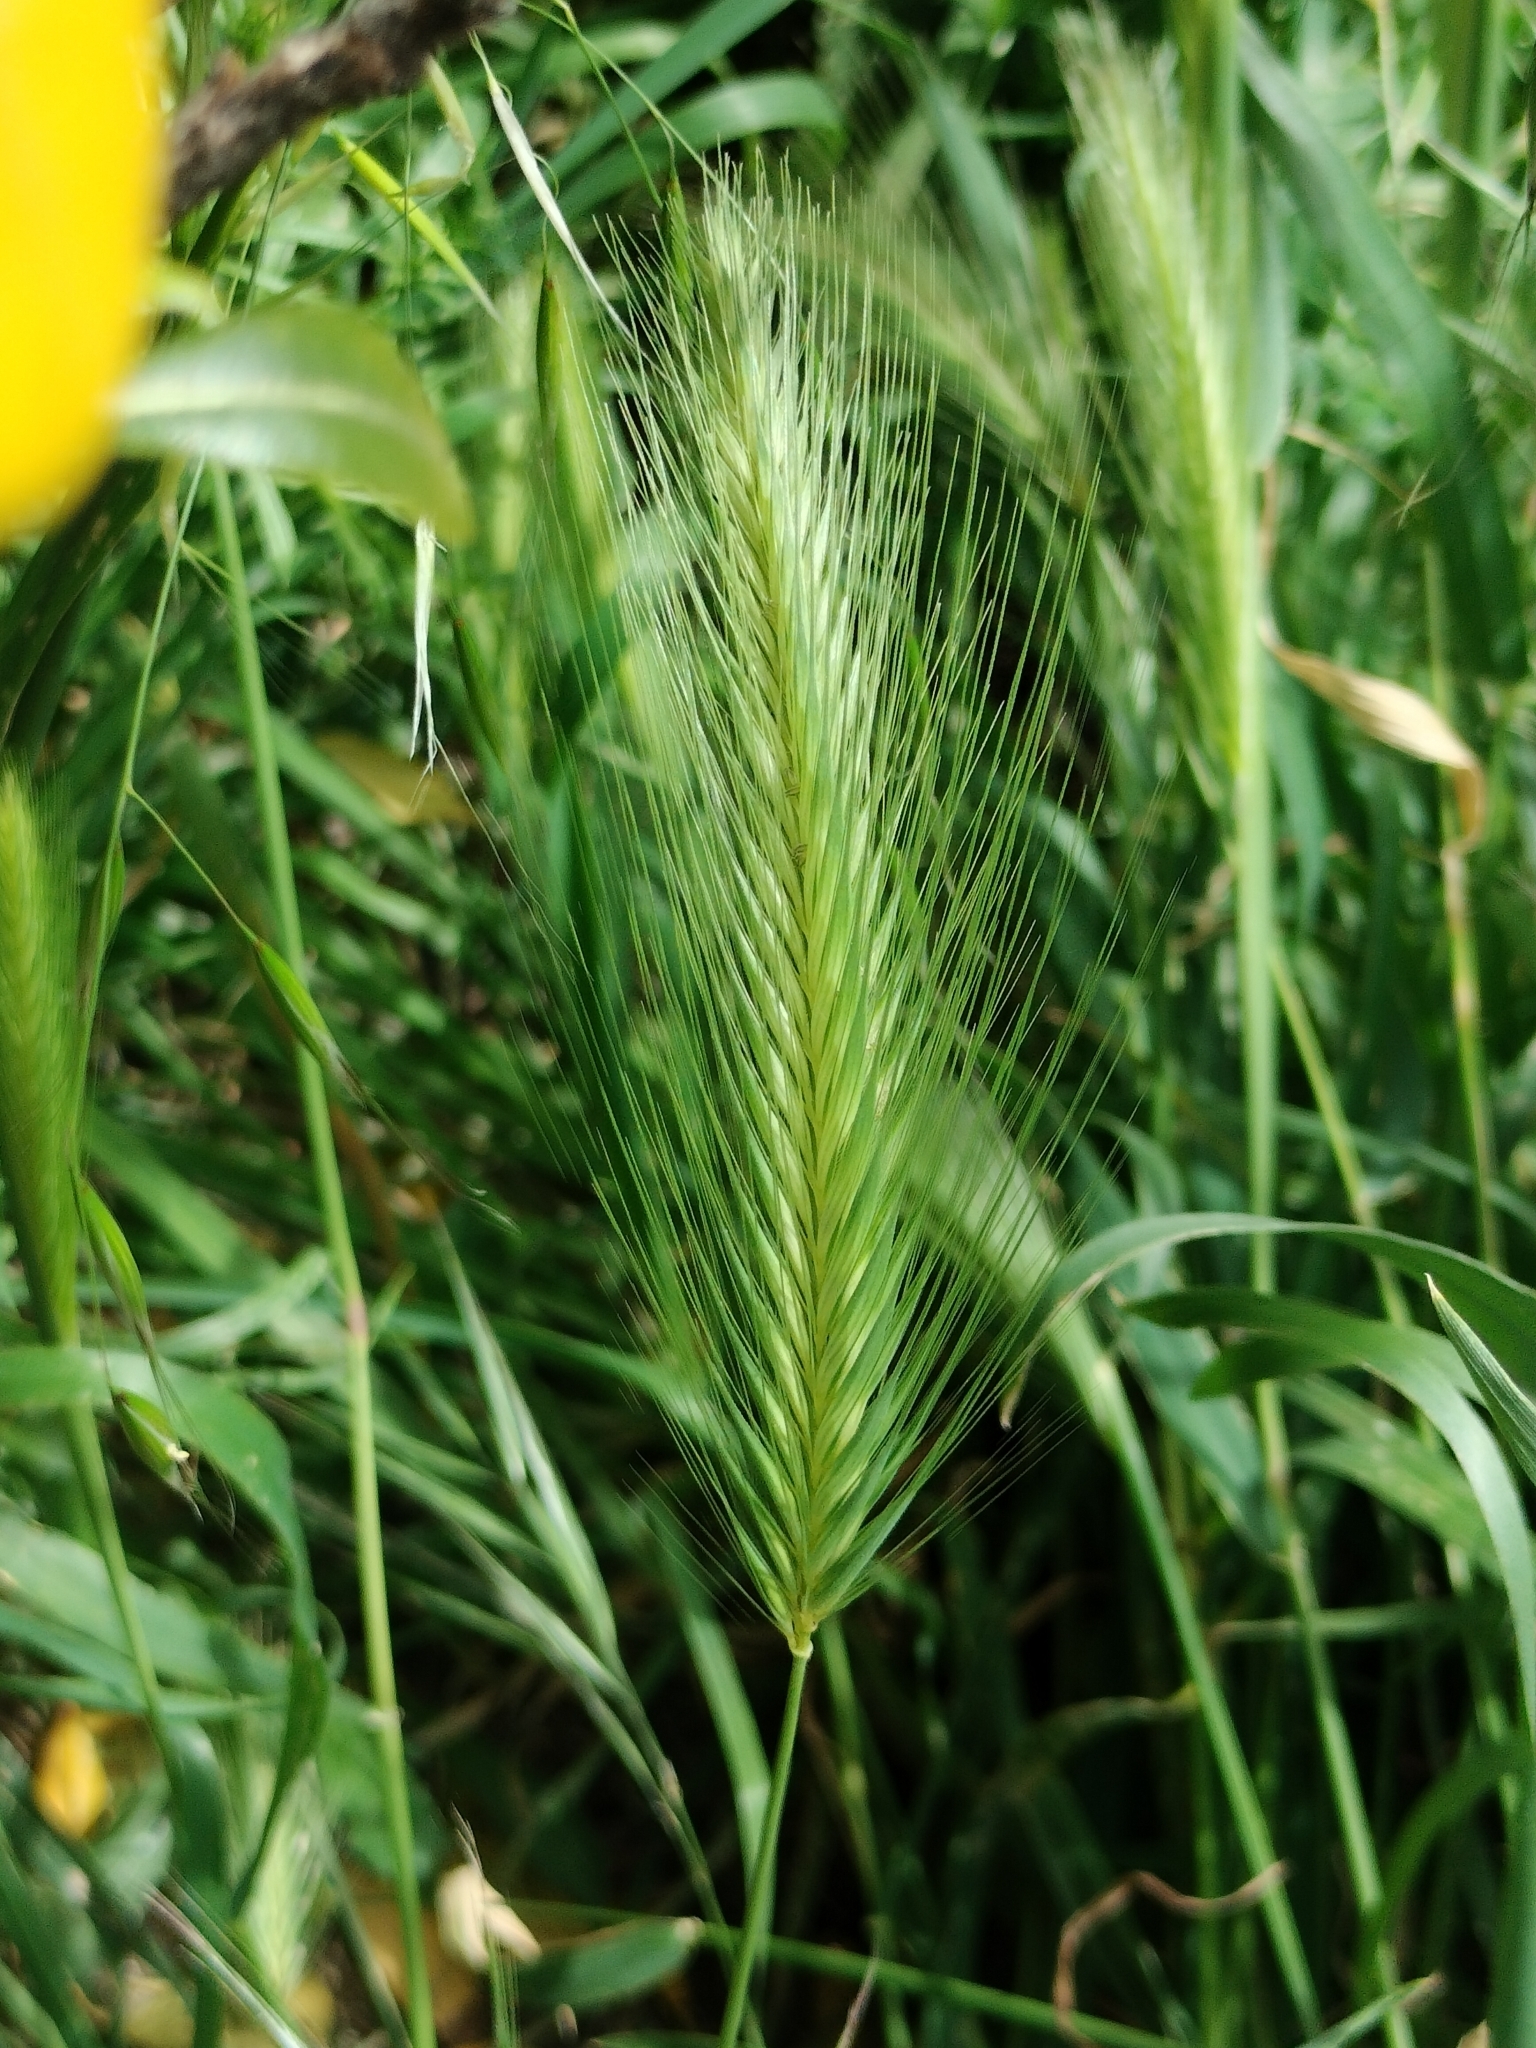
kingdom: Plantae
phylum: Tracheophyta
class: Liliopsida
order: Poales
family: Poaceae
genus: Hordeum
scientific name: Hordeum murinum
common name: Wall barley
